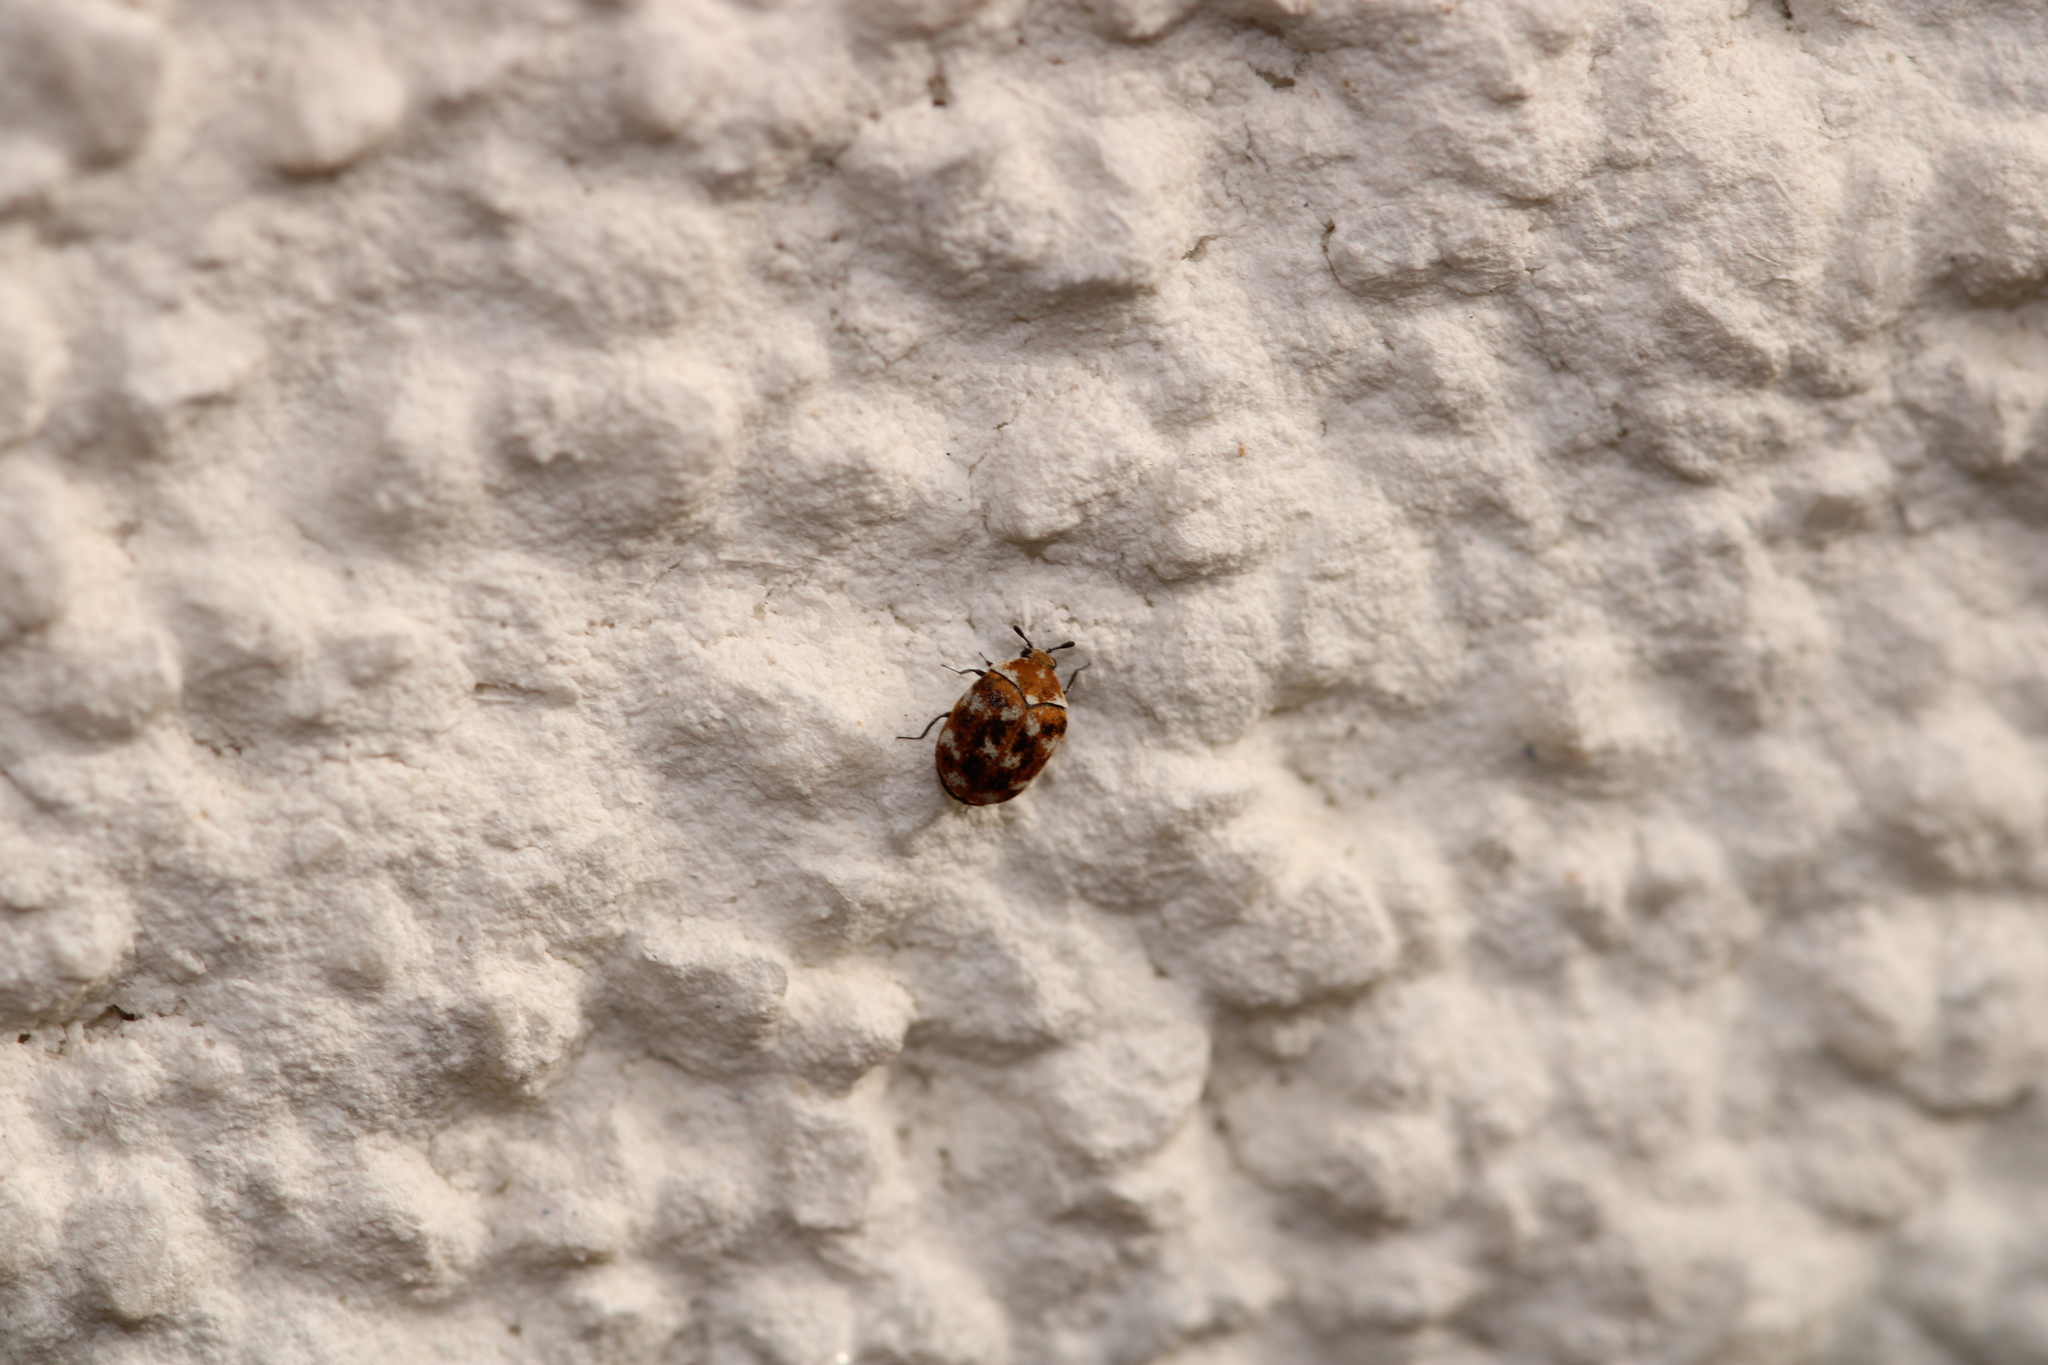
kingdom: Animalia
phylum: Arthropoda
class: Insecta
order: Coleoptera
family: Dermestidae
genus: Anthrenus
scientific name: Anthrenus verbasci
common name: Varied carpet beetle
